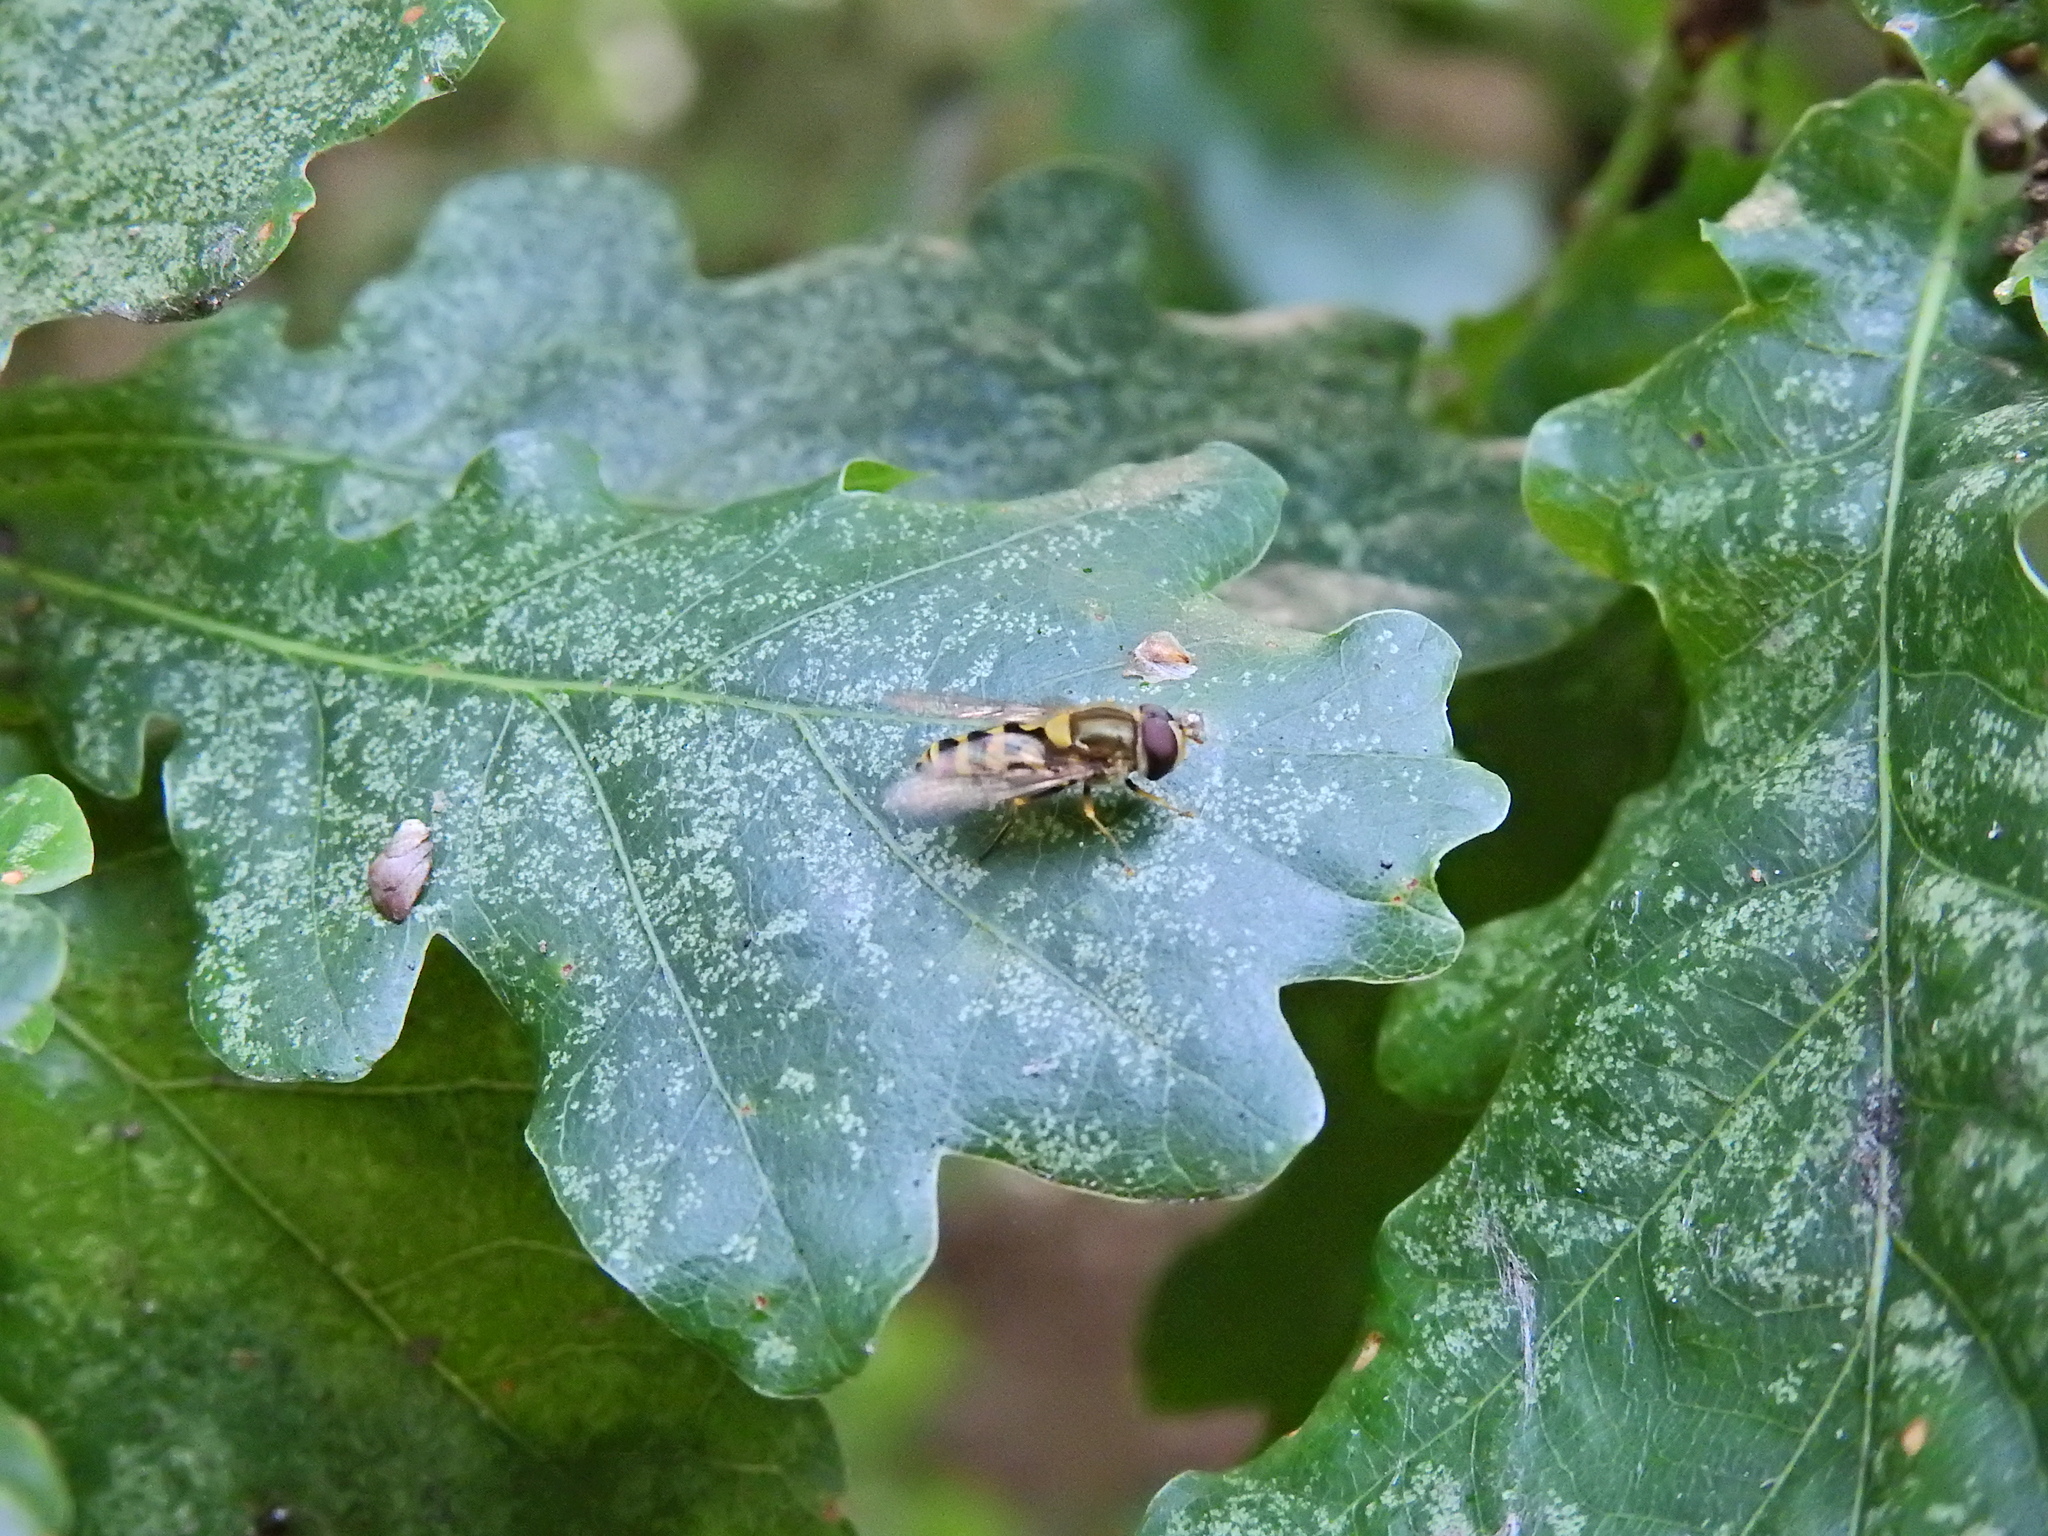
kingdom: Animalia
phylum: Arthropoda
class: Insecta
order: Diptera
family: Syrphidae
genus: Syrphus
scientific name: Syrphus
